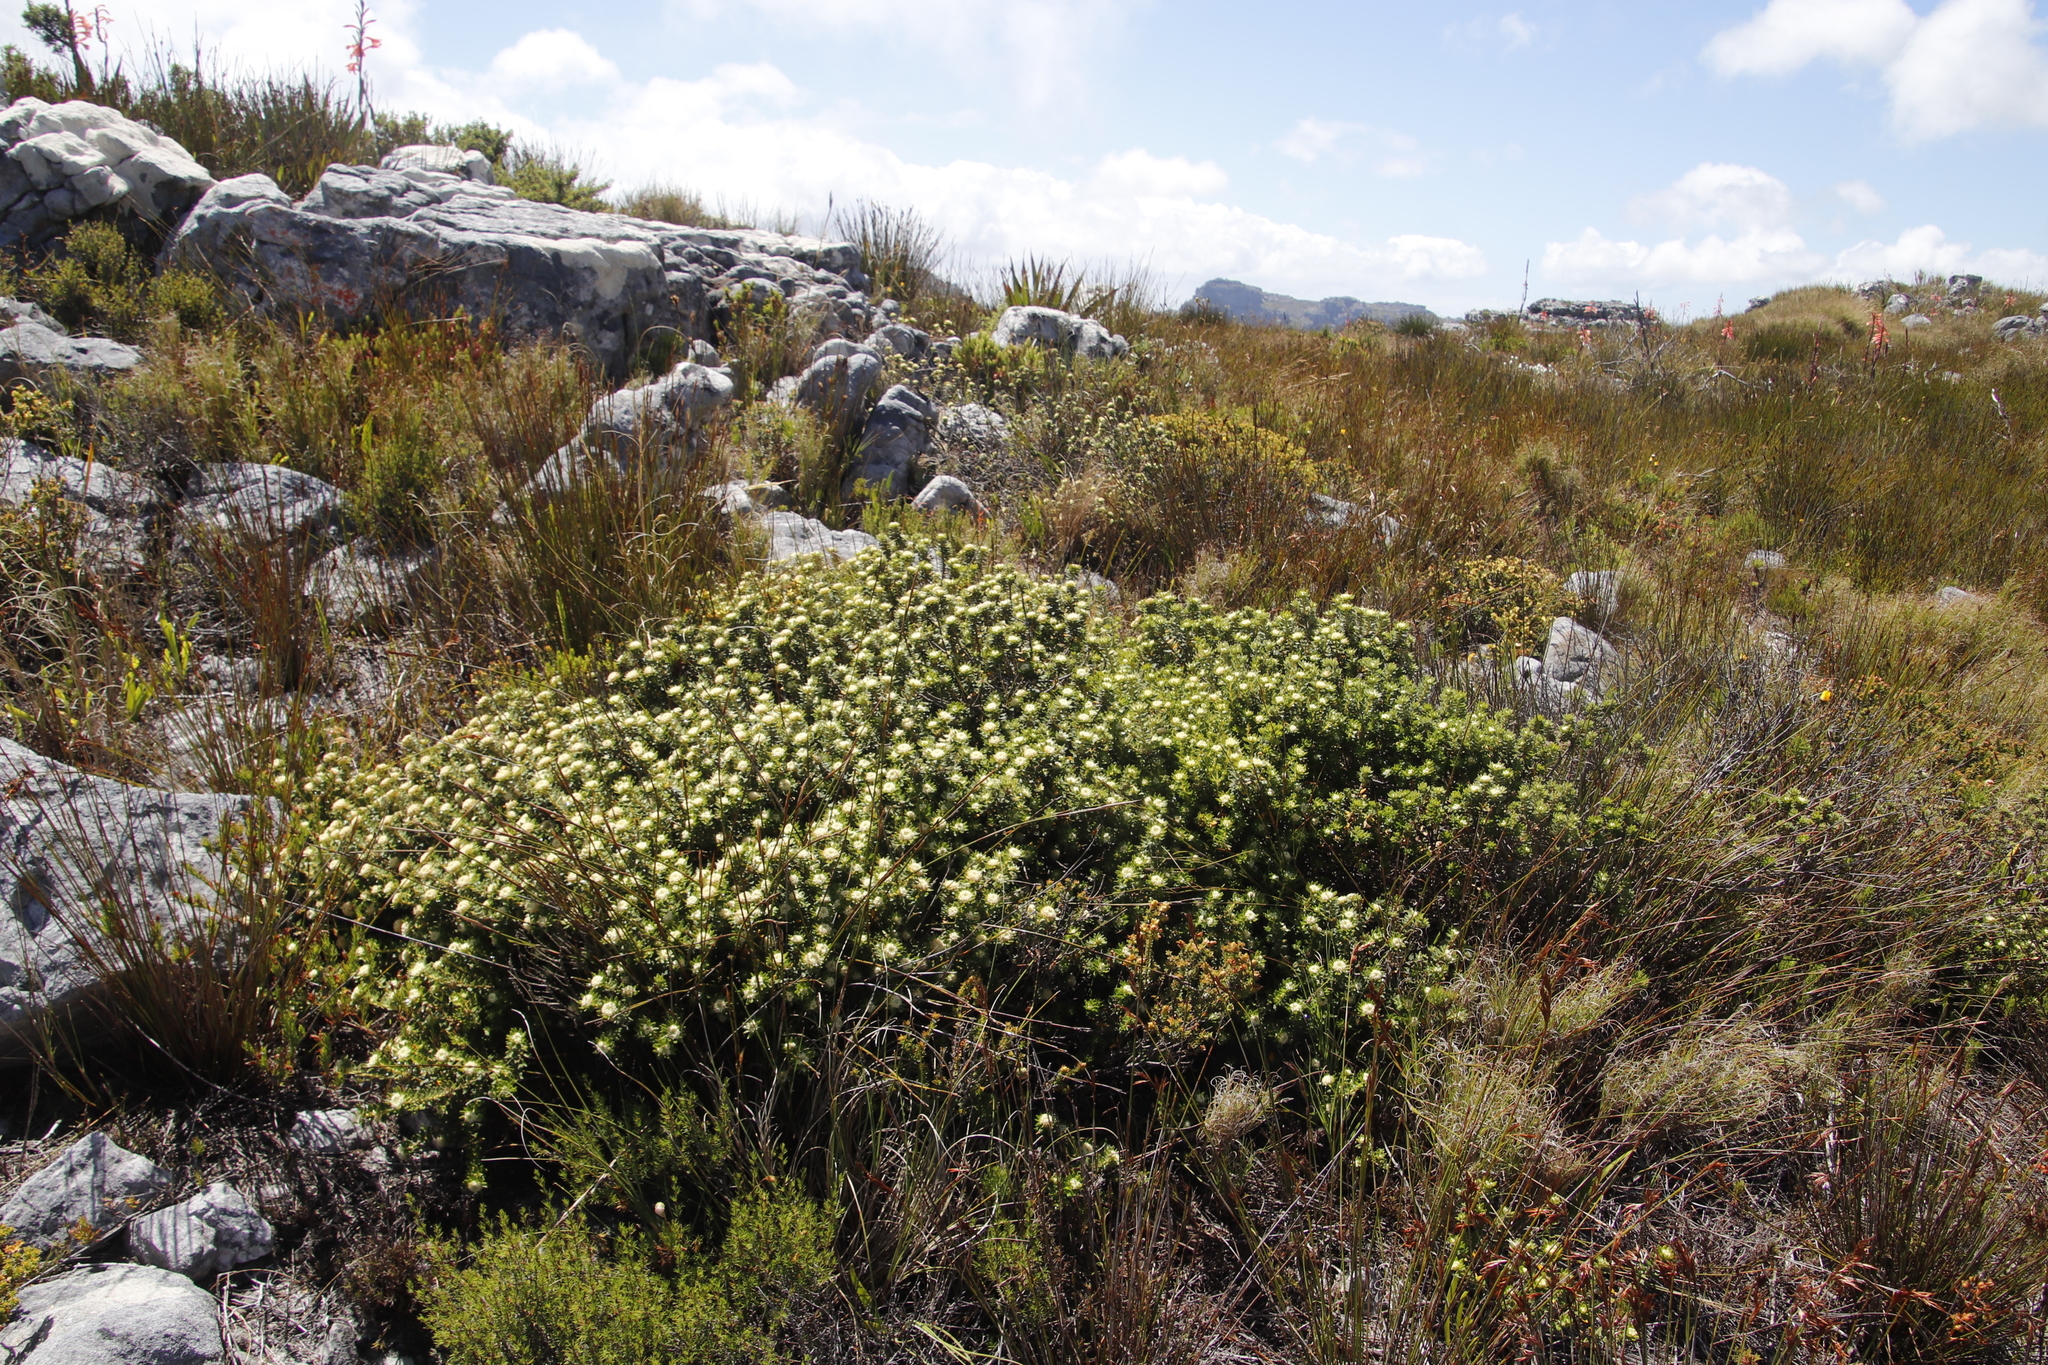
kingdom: Plantae
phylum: Tracheophyta
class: Magnoliopsida
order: Rosales
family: Rhamnaceae
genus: Phylica
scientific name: Phylica dioica
